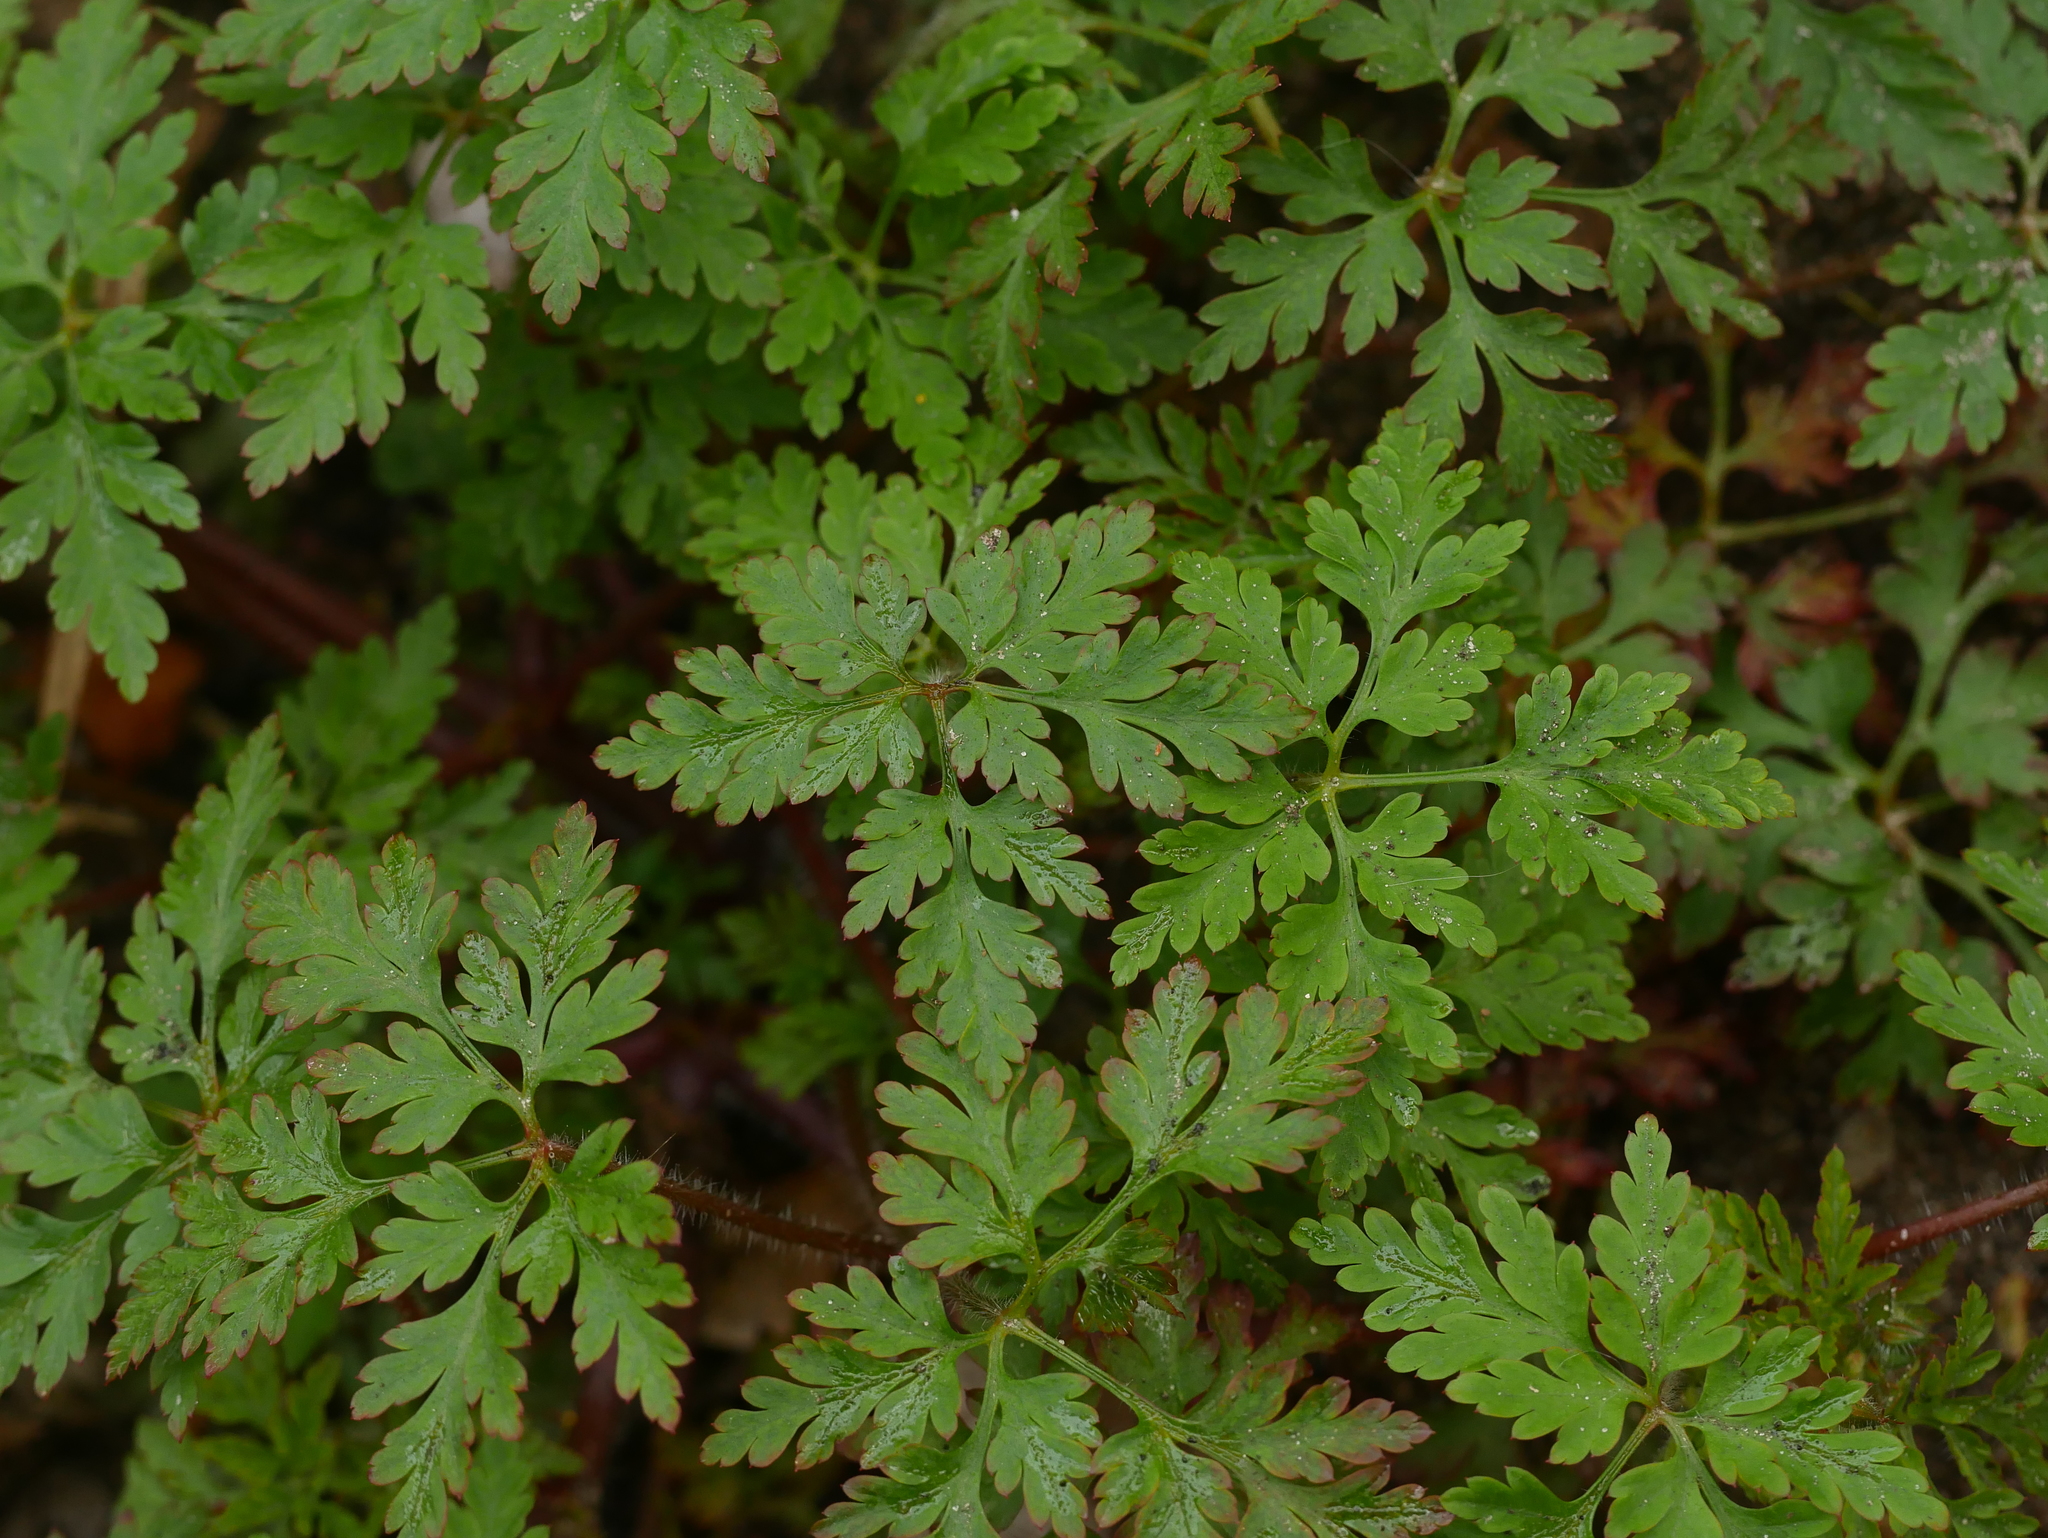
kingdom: Plantae
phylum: Tracheophyta
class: Magnoliopsida
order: Geraniales
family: Geraniaceae
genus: Geranium
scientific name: Geranium robertianum
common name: Herb-robert
